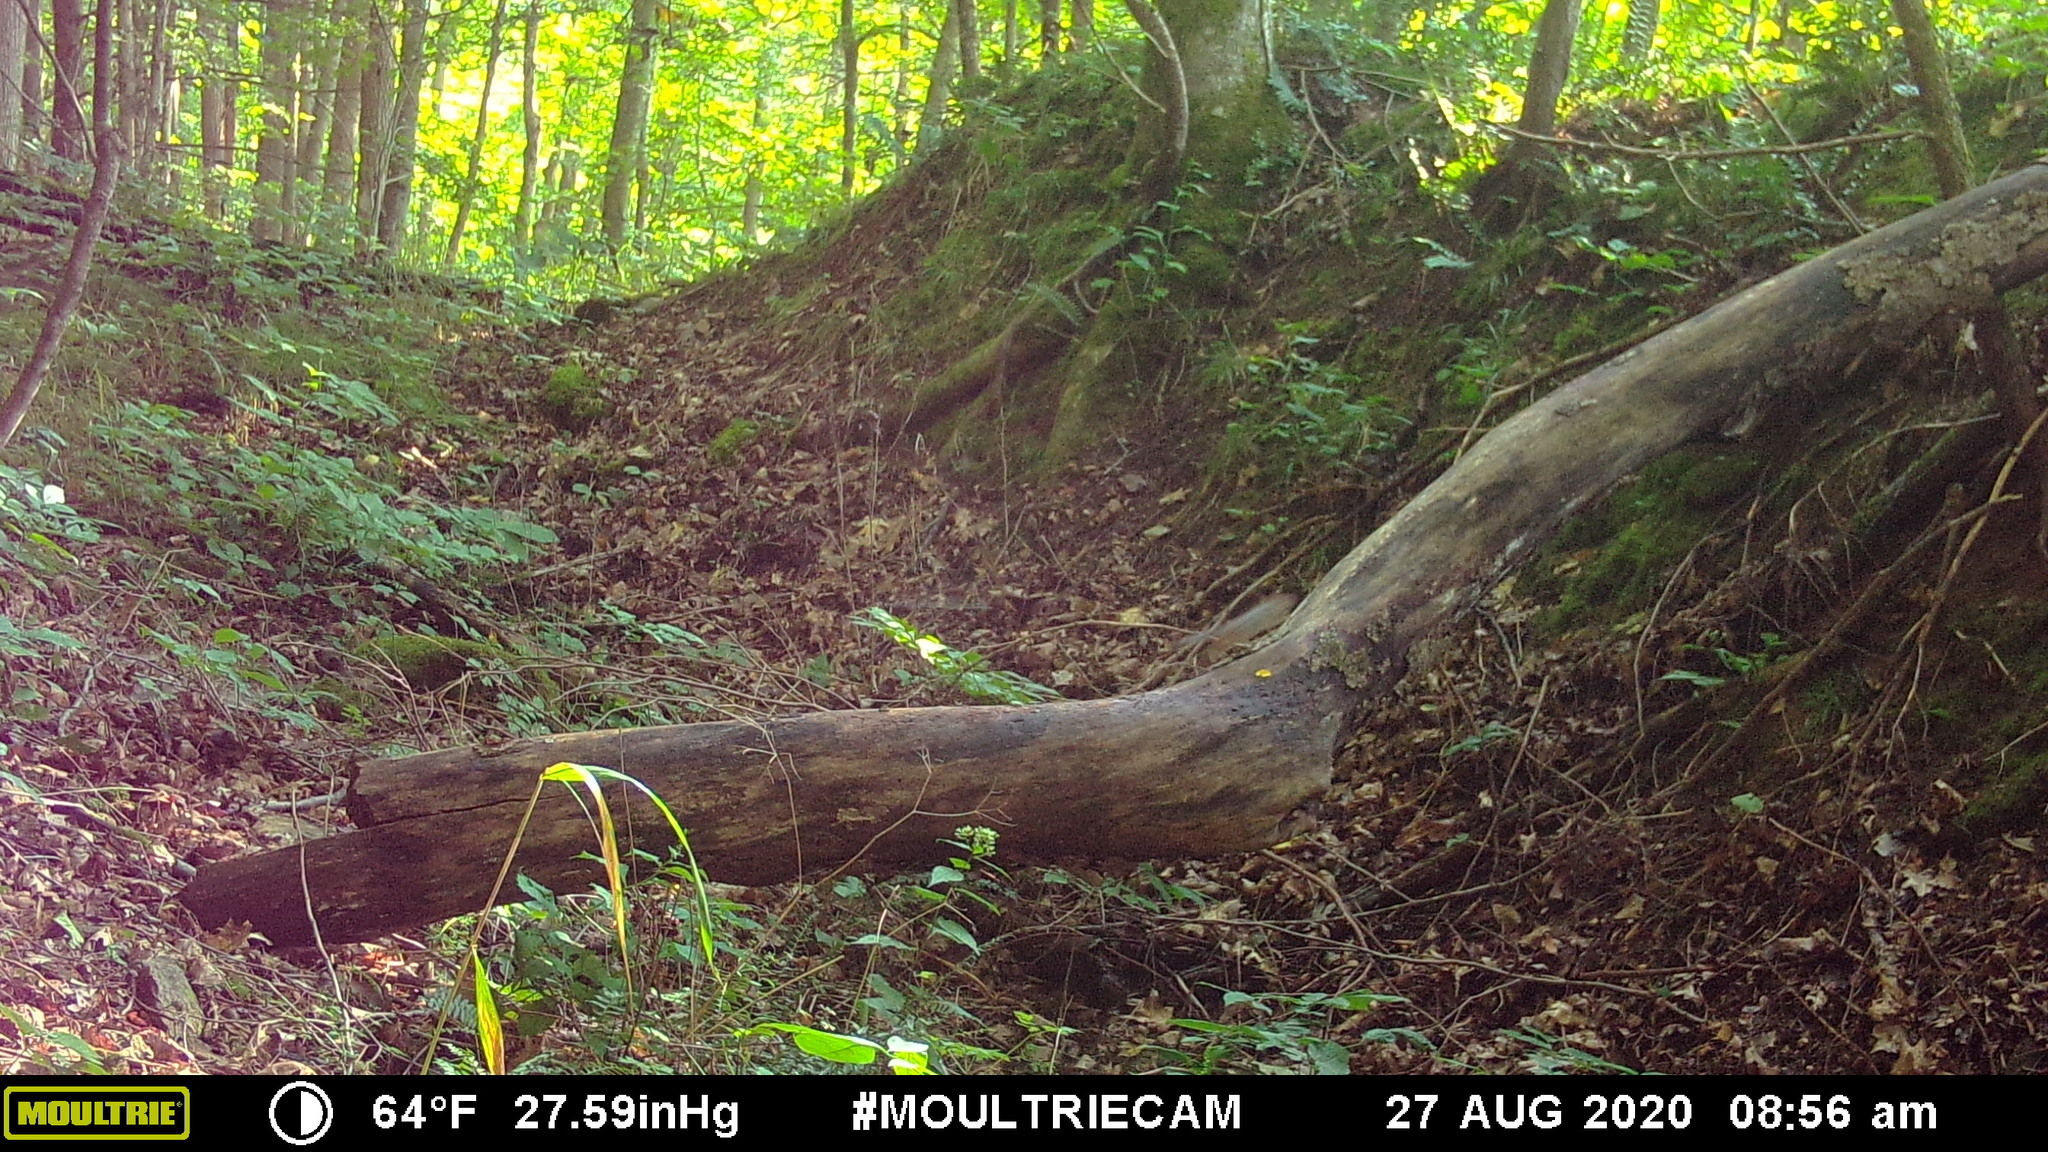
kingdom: Animalia
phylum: Chordata
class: Mammalia
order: Rodentia
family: Sciuridae
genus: Tamias
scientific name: Tamias striatus
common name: Eastern chipmunk
